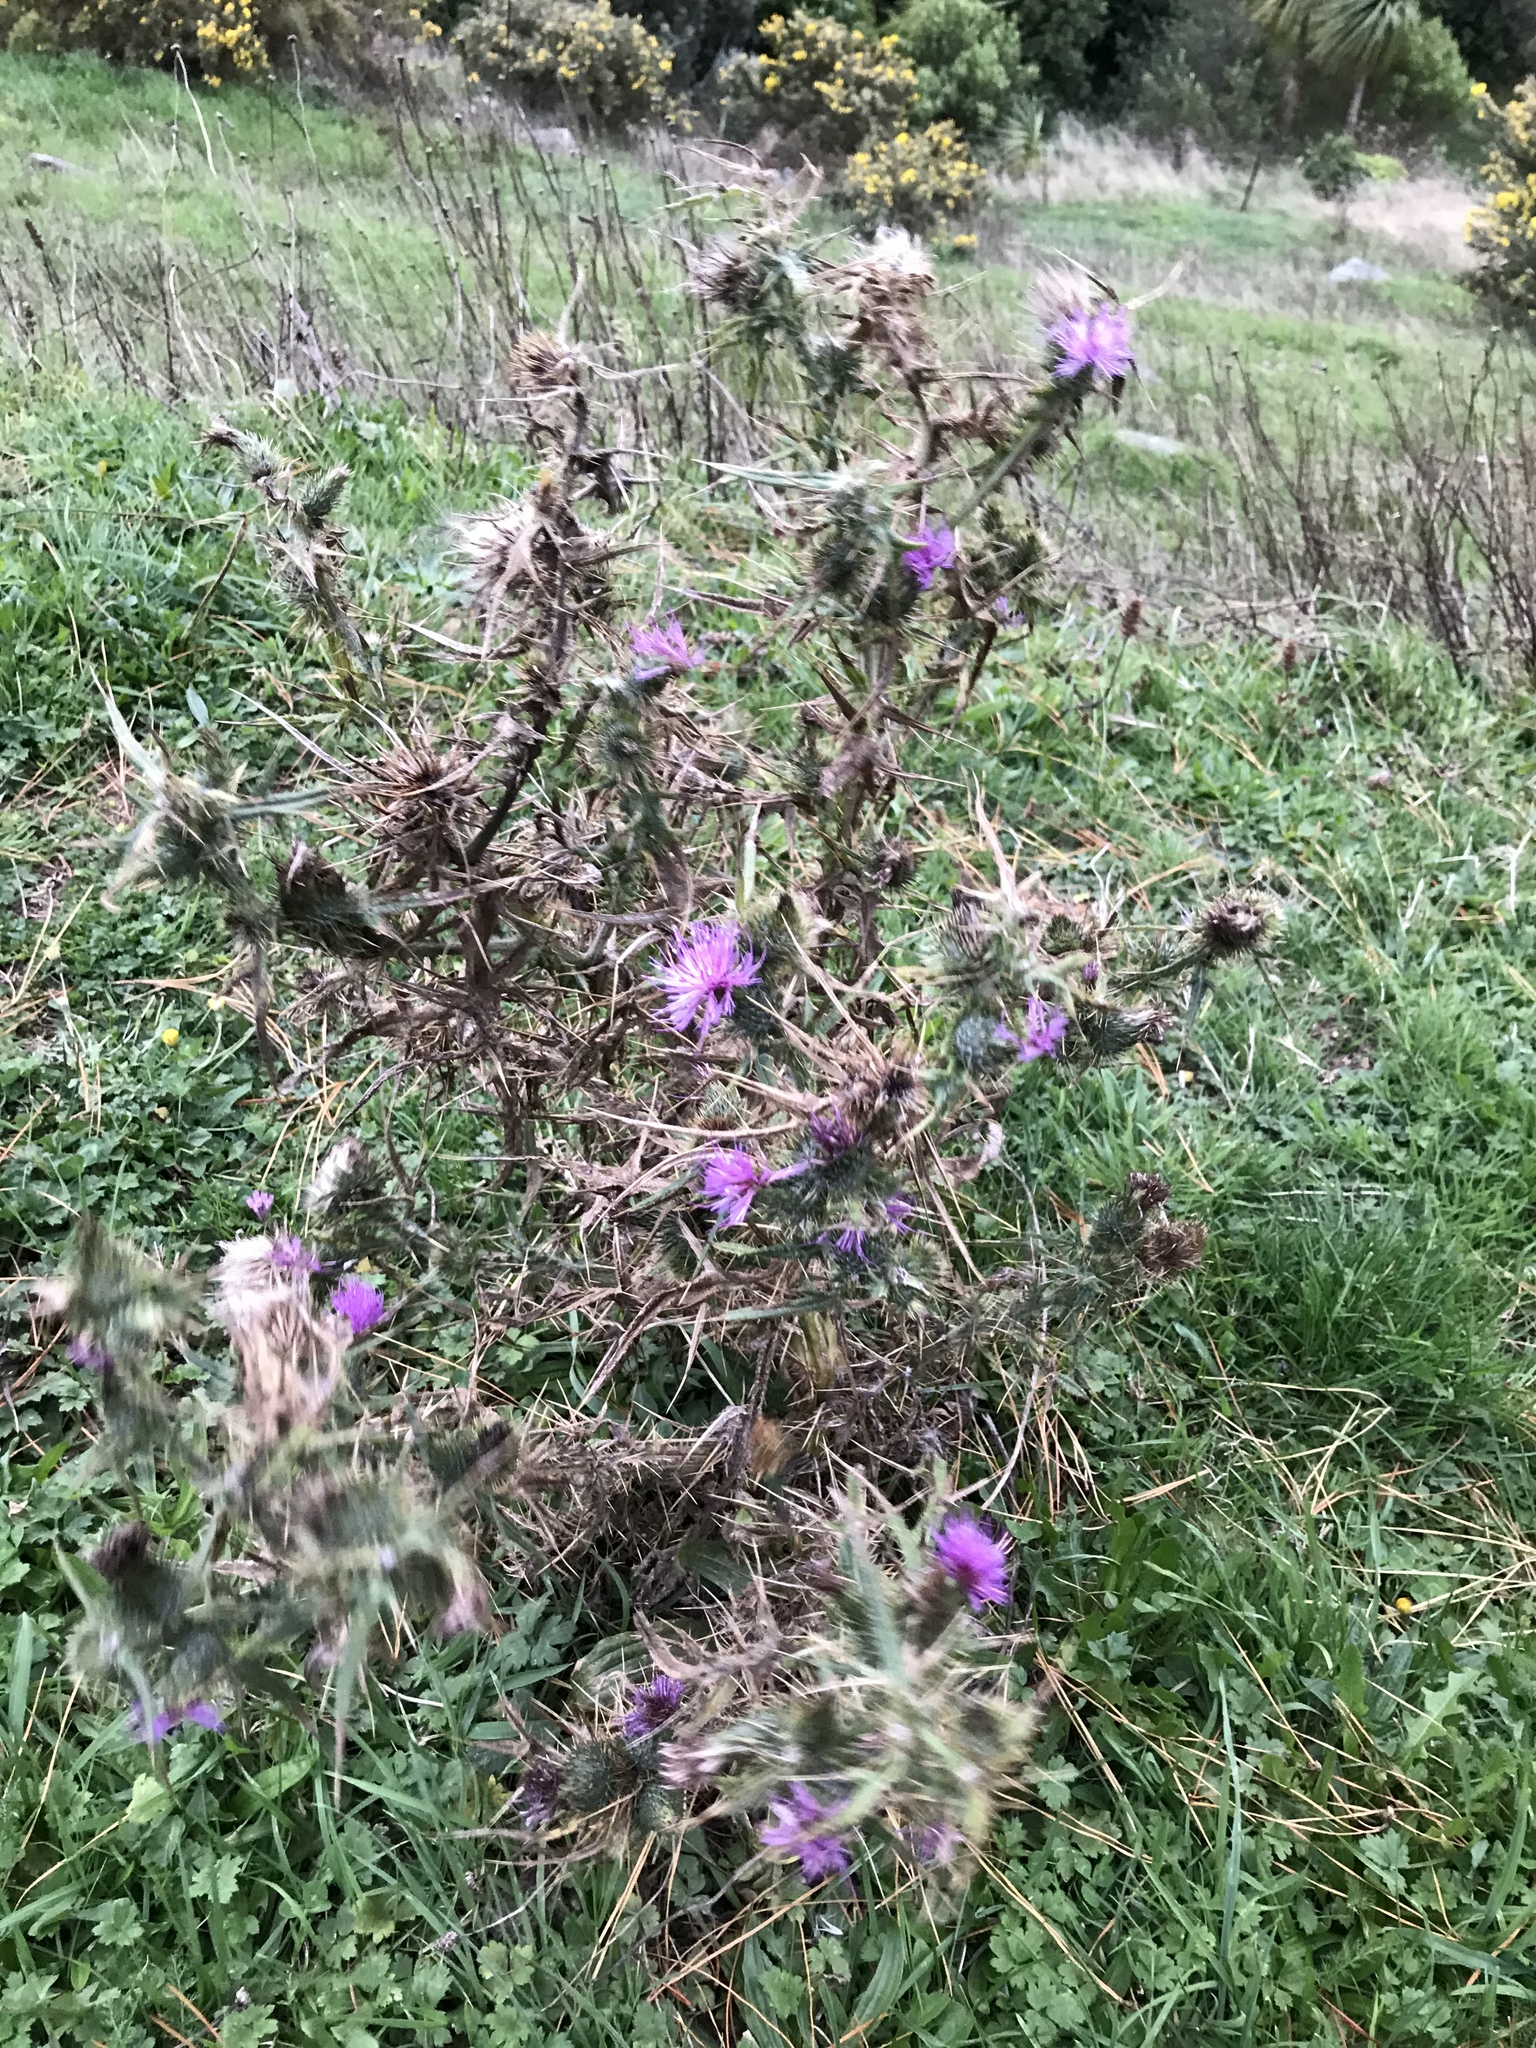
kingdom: Plantae
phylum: Tracheophyta
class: Magnoliopsida
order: Asterales
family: Asteraceae
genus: Cirsium
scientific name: Cirsium vulgare
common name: Bull thistle
